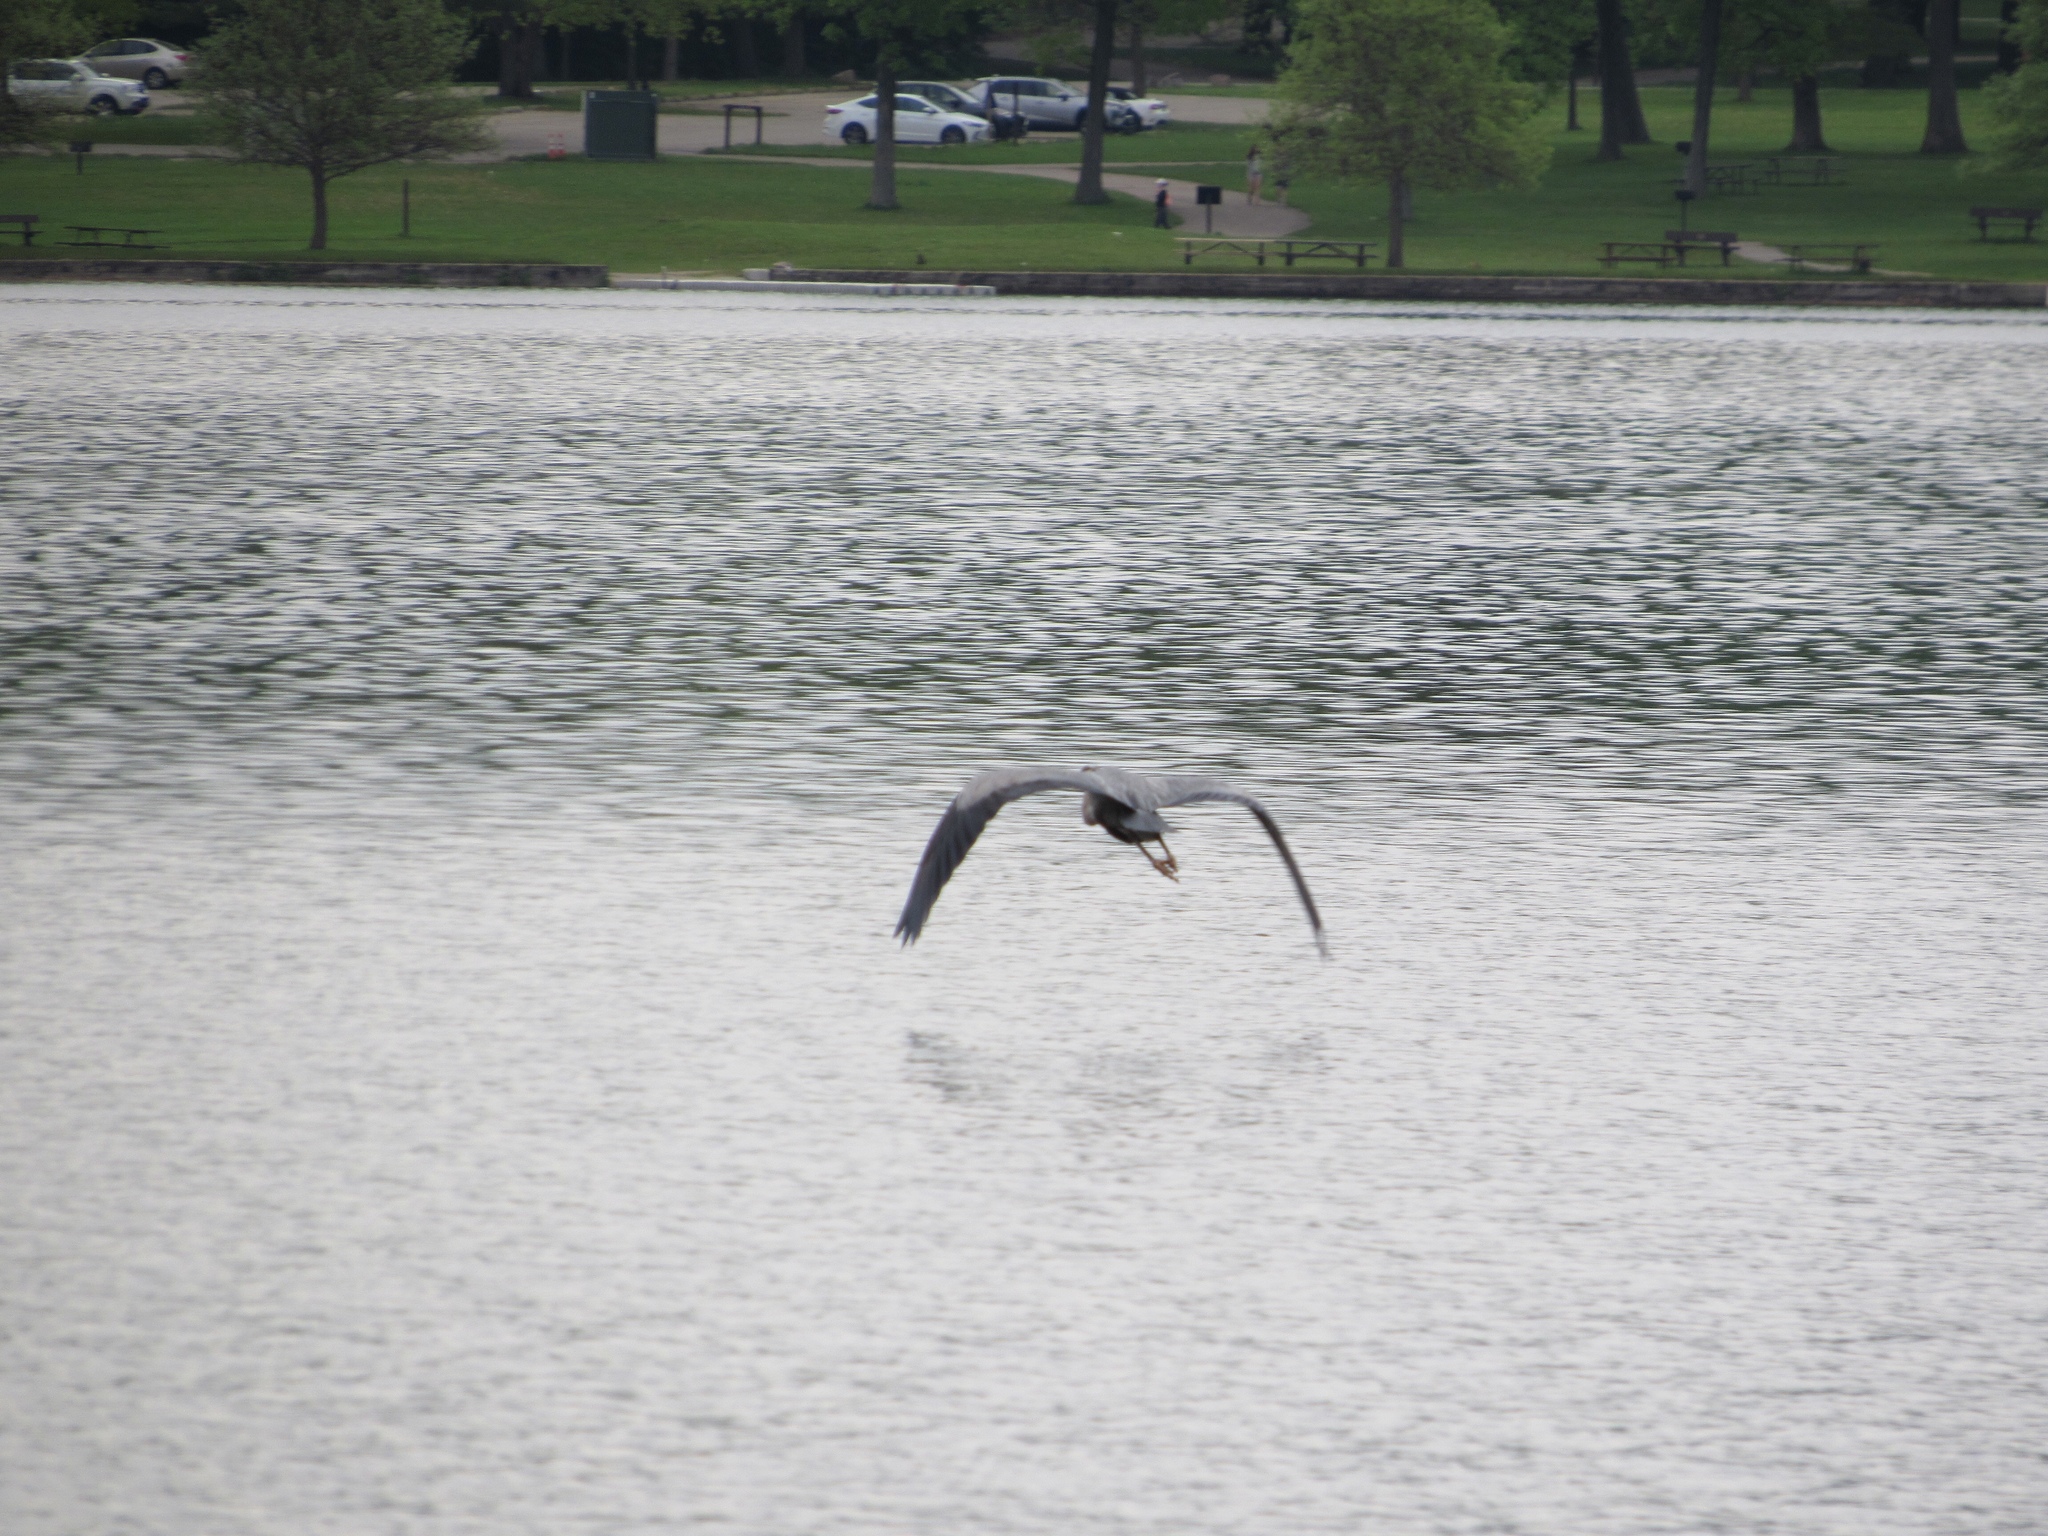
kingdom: Animalia
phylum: Chordata
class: Aves
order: Pelecaniformes
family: Ardeidae
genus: Ardea
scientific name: Ardea herodias
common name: Great blue heron
